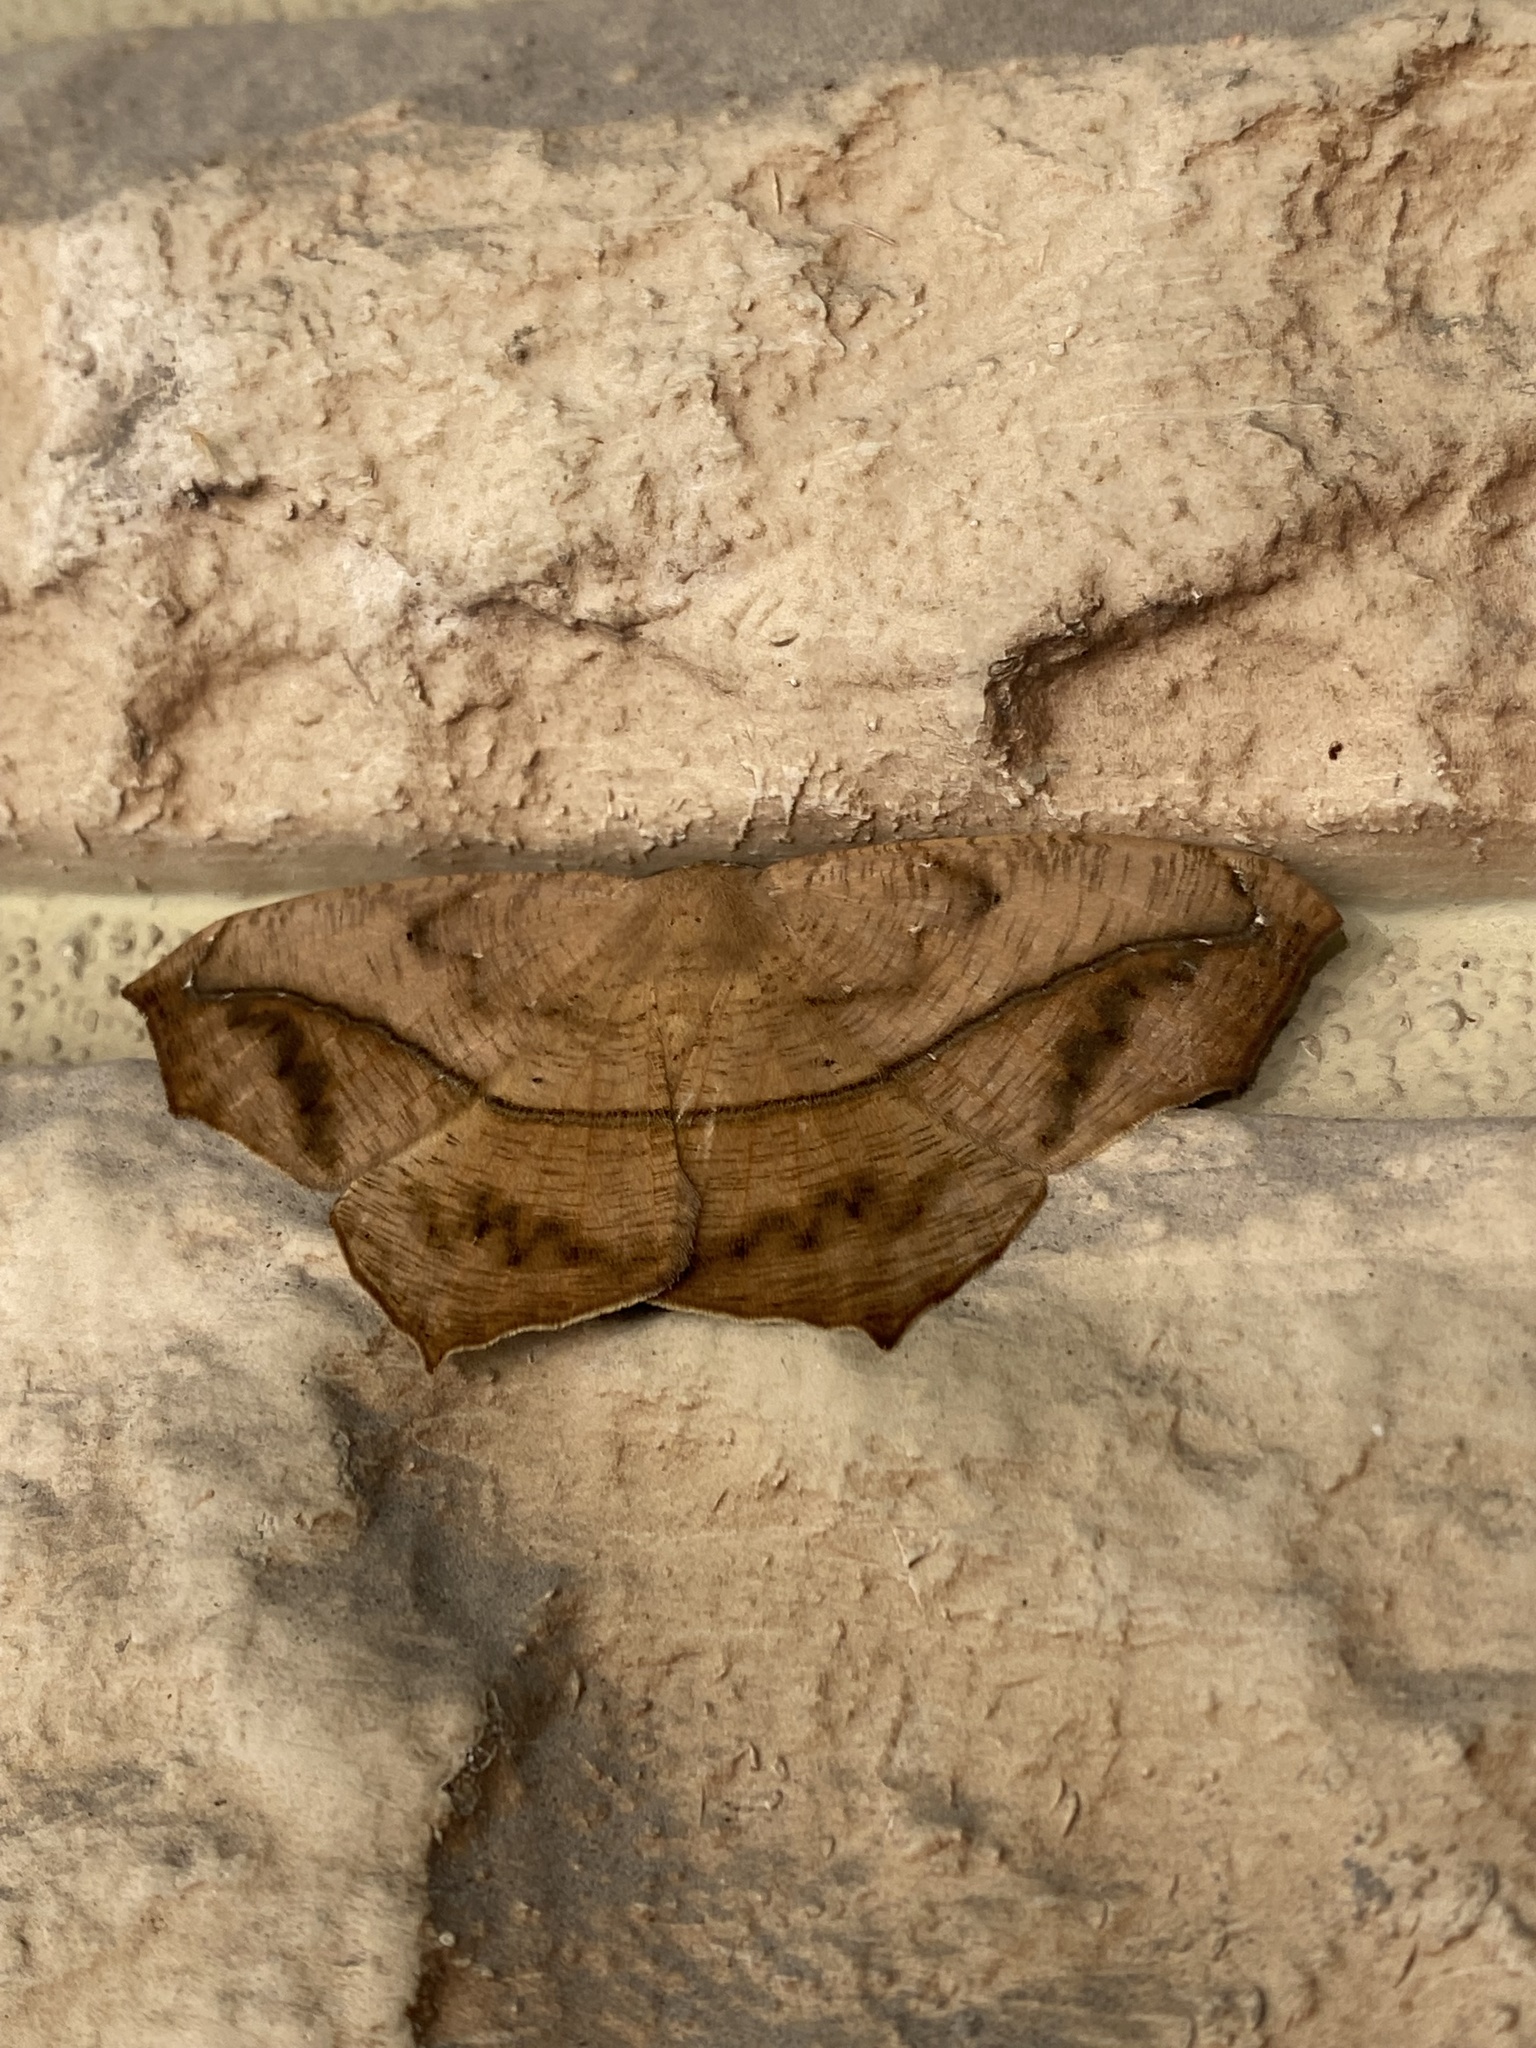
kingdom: Animalia
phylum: Arthropoda
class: Insecta
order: Lepidoptera
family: Geometridae
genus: Prochoerodes
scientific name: Prochoerodes lineola
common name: Large maple spanworm
